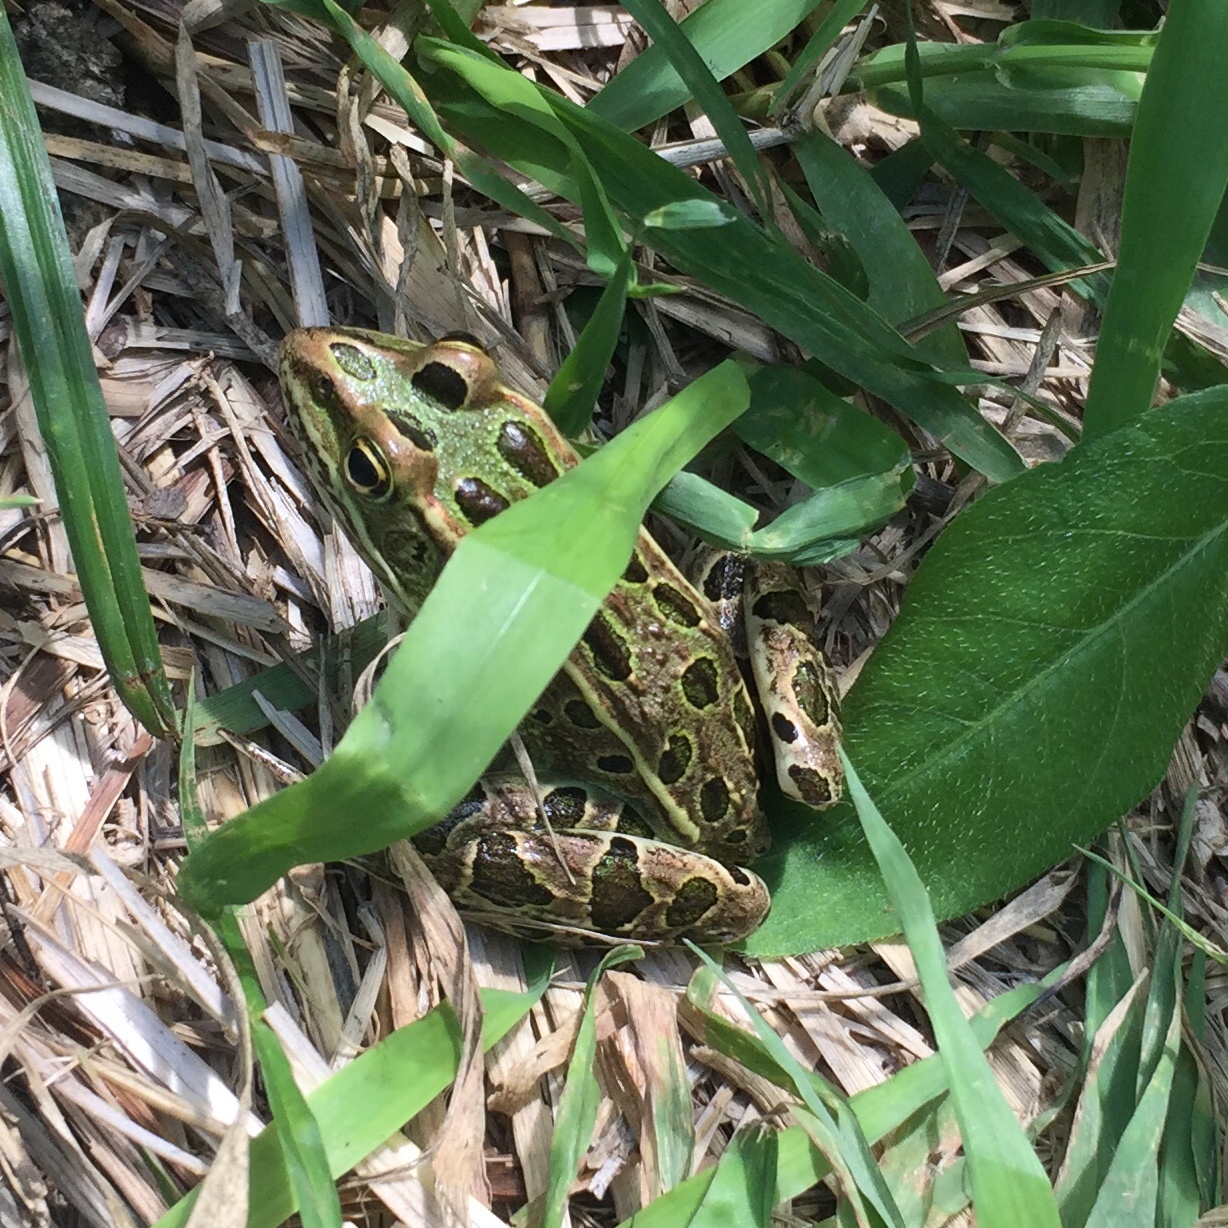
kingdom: Animalia
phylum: Chordata
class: Amphibia
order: Anura
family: Ranidae
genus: Lithobates
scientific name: Lithobates pipiens
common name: Northern leopard frog
